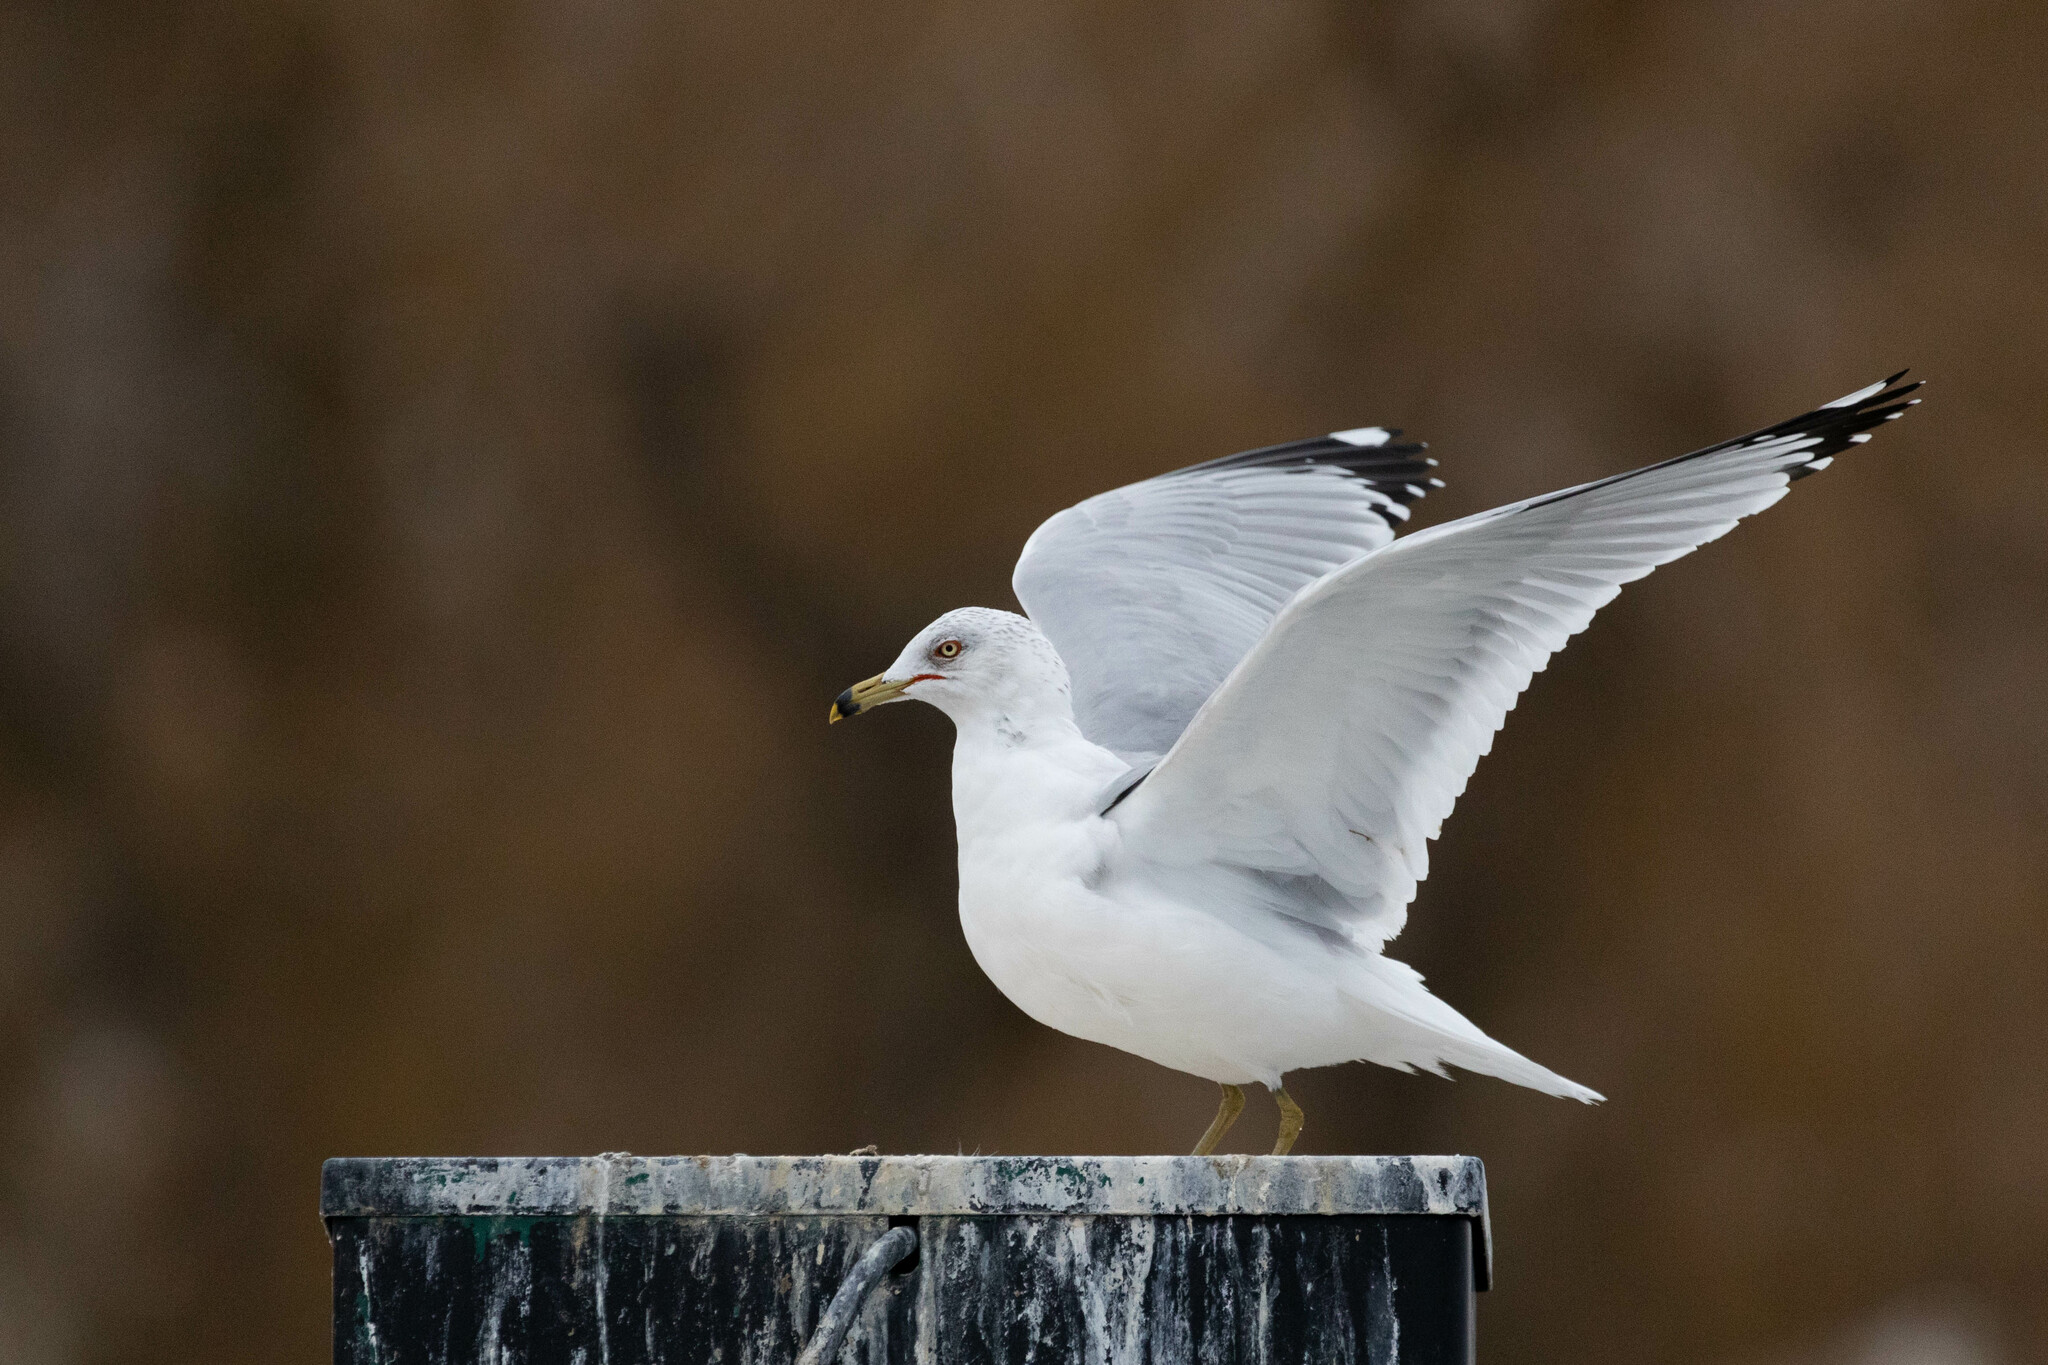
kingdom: Animalia
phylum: Chordata
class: Aves
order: Charadriiformes
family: Laridae
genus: Larus
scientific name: Larus delawarensis
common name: Ring-billed gull
